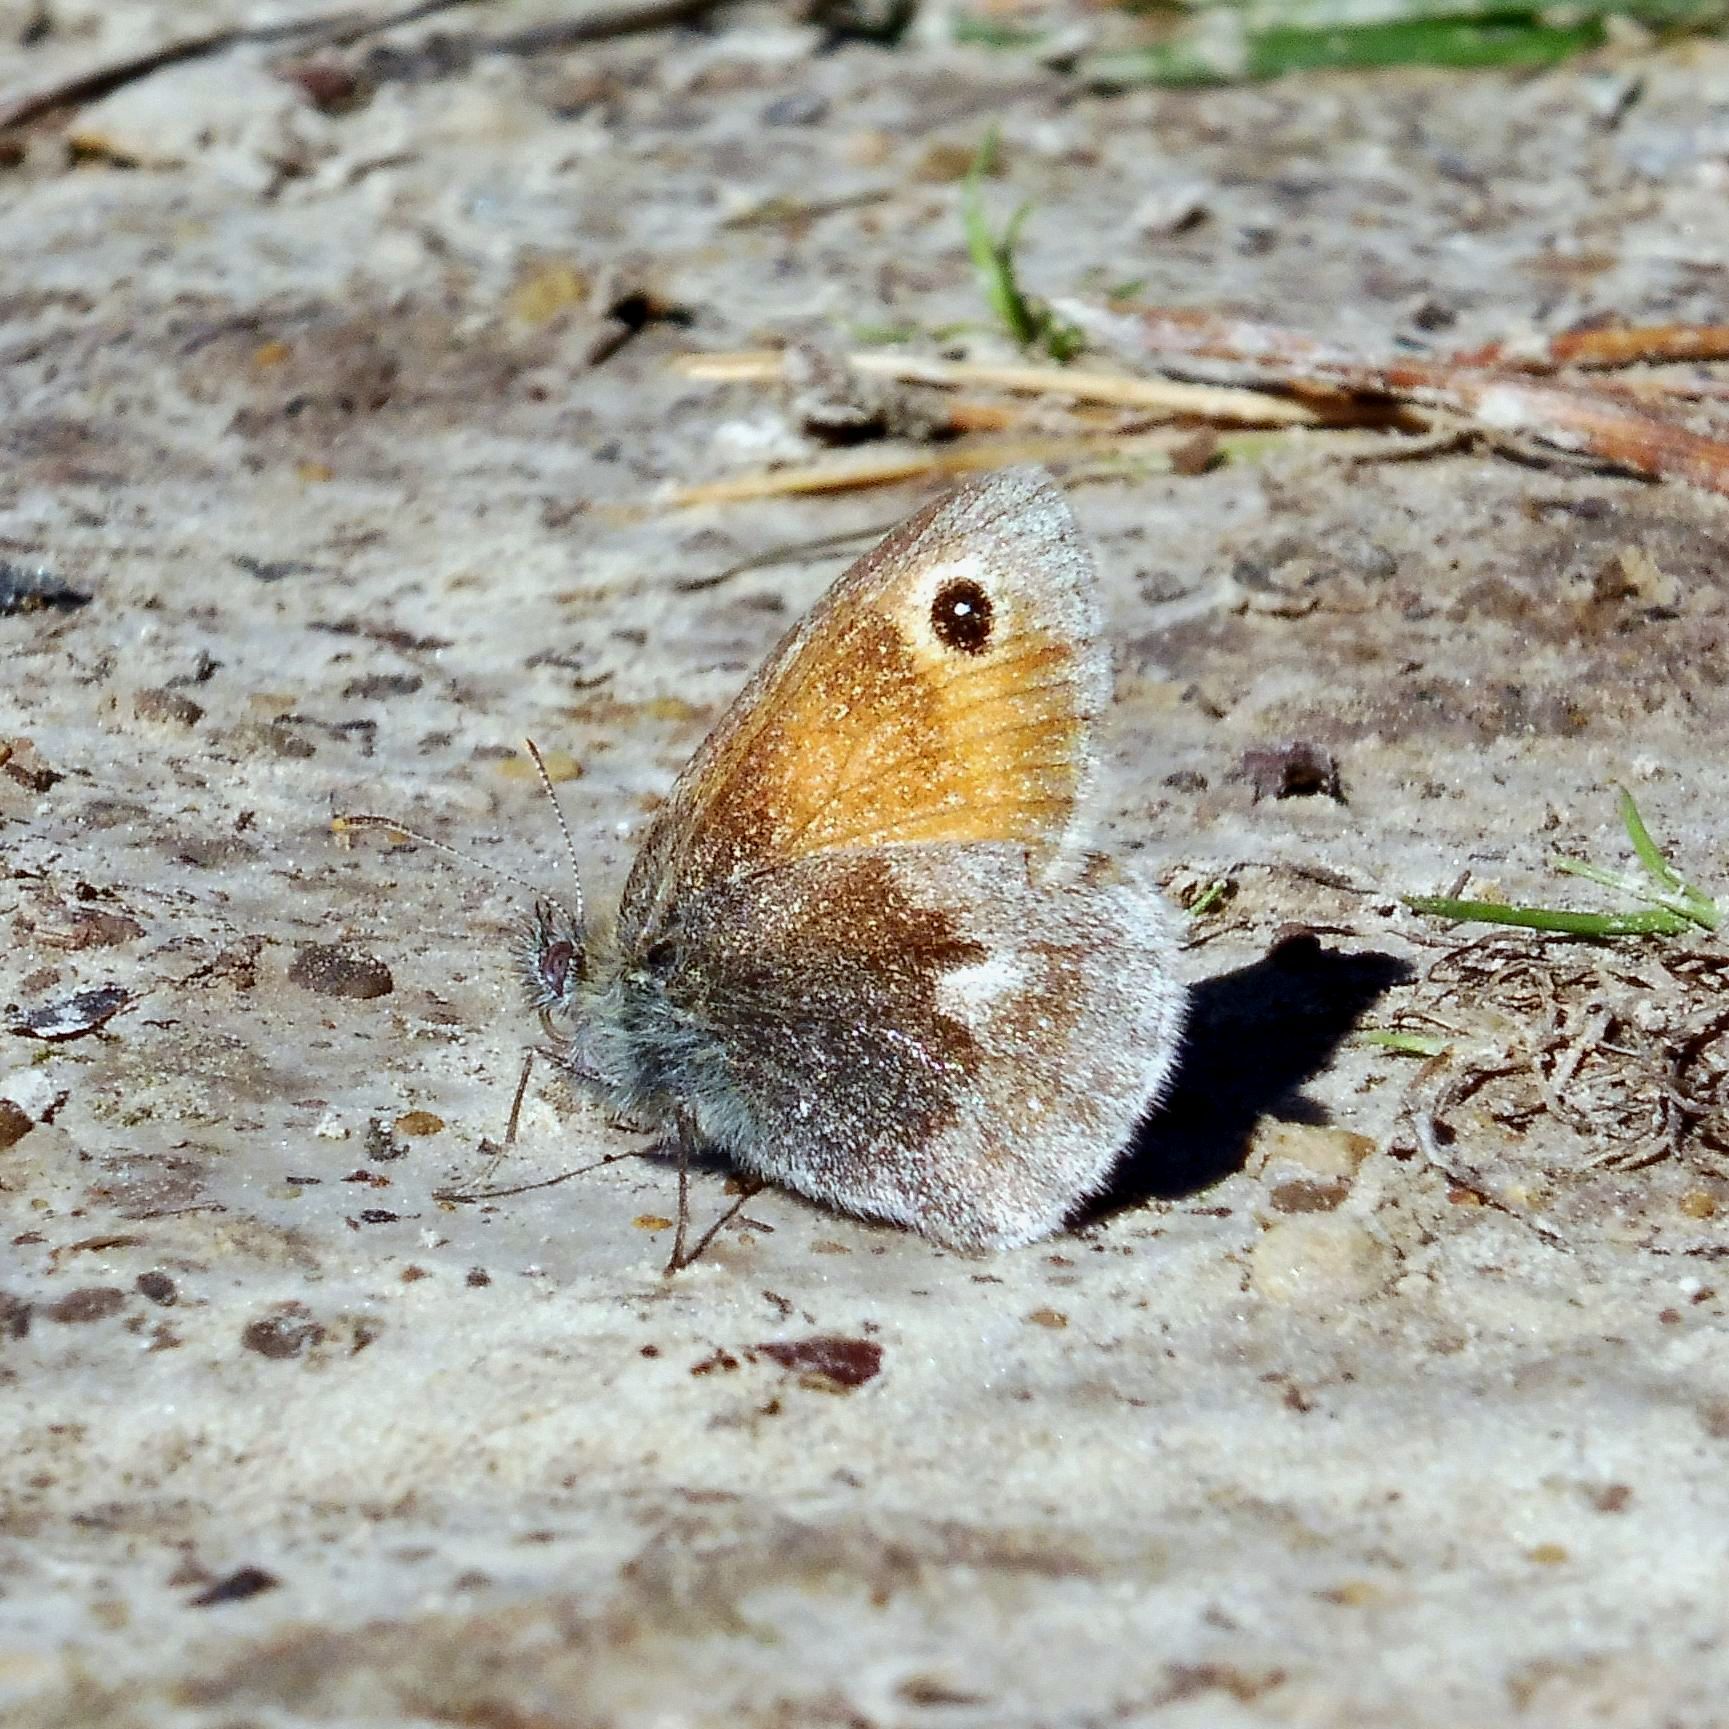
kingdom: Animalia
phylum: Arthropoda
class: Insecta
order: Lepidoptera
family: Nymphalidae
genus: Coenonympha
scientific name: Coenonympha pamphilus
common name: Small heath
